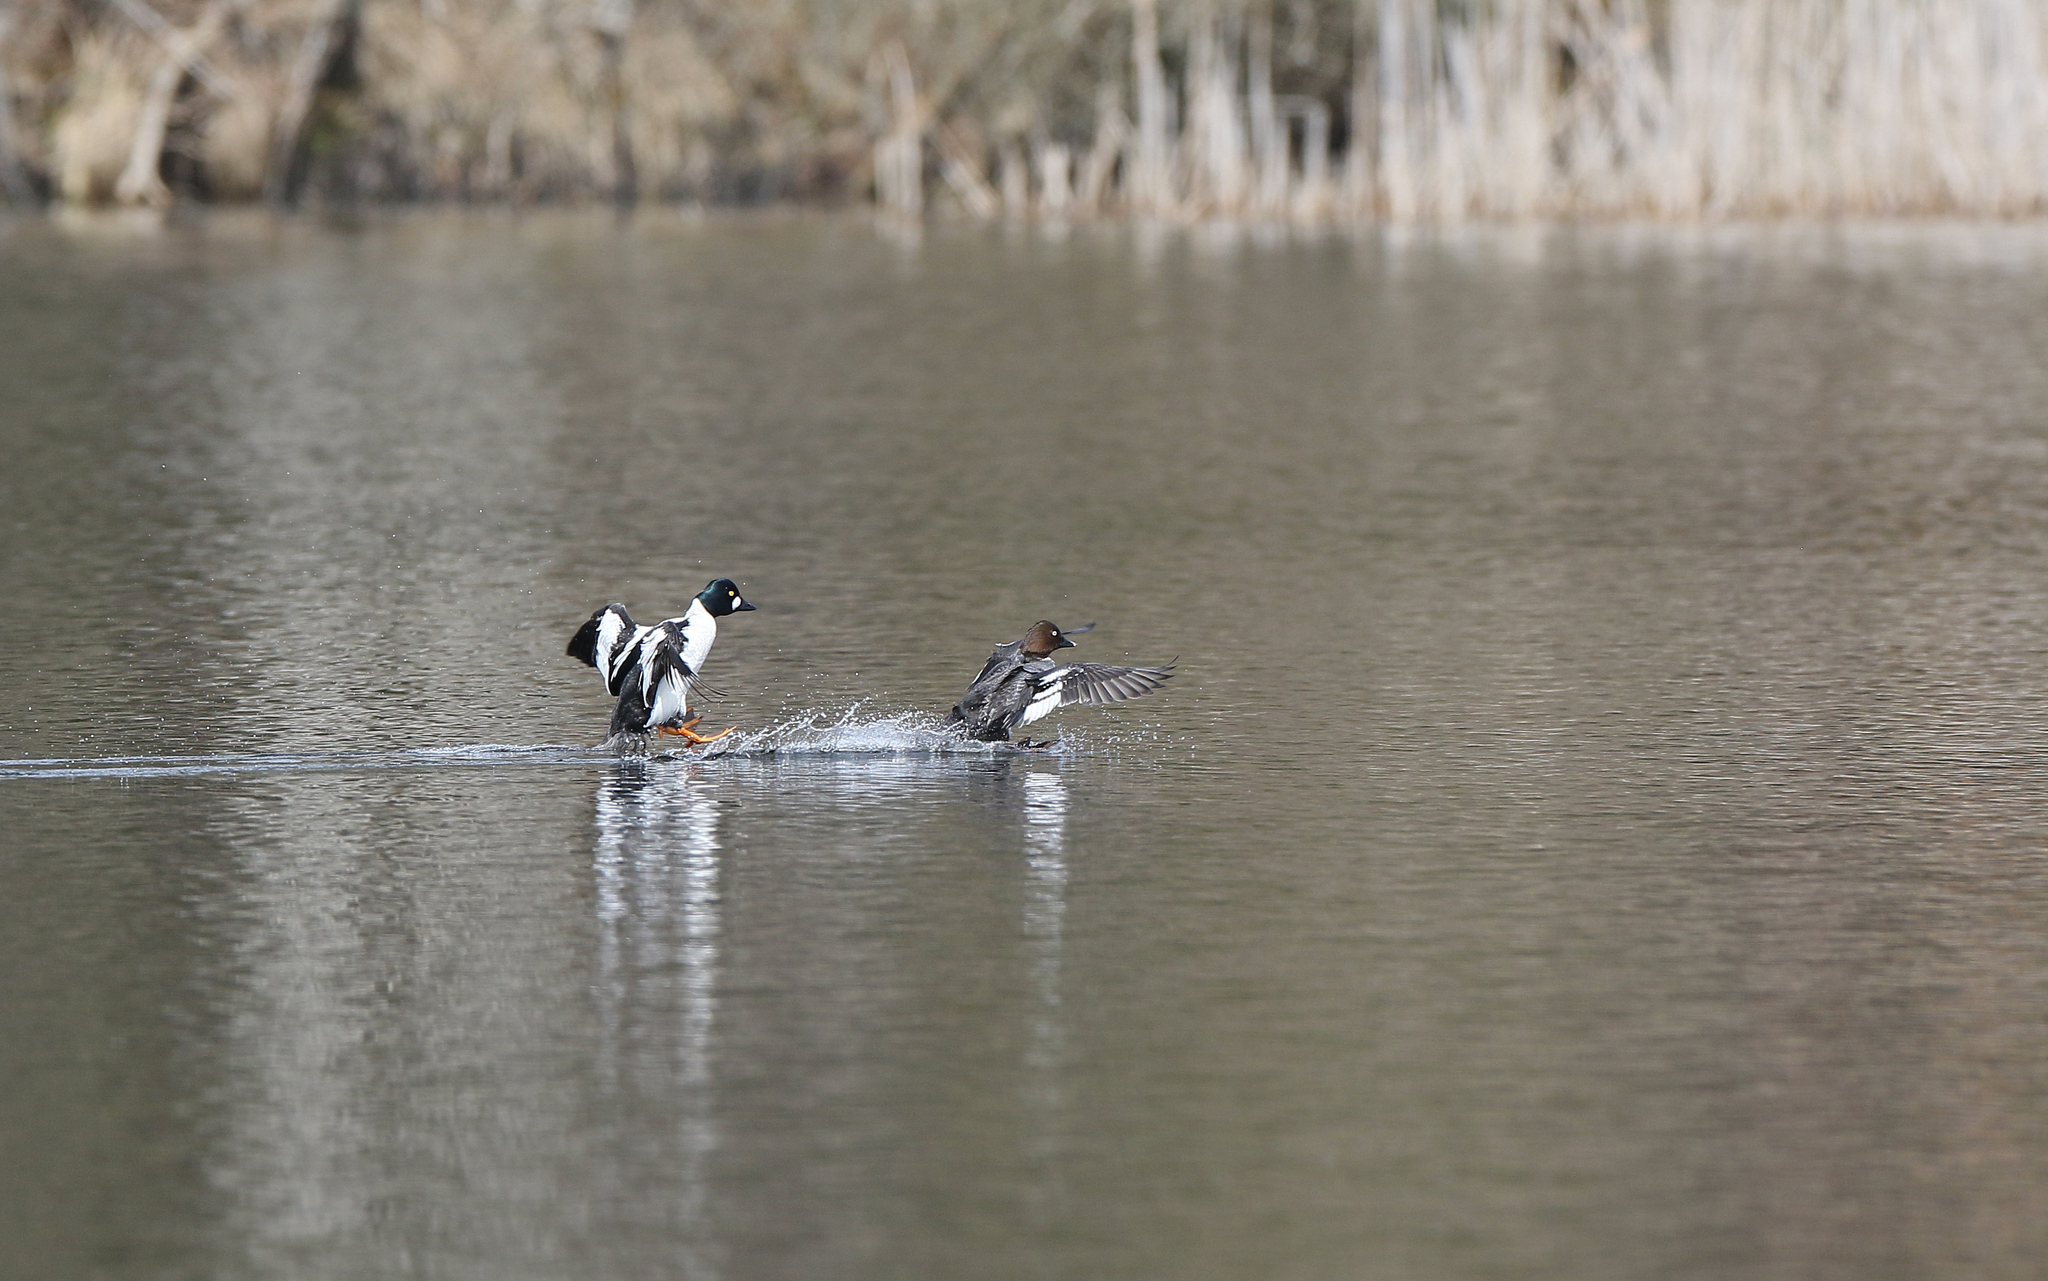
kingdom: Animalia
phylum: Chordata
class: Aves
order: Anseriformes
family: Anatidae
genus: Bucephala
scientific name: Bucephala clangula
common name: Common goldeneye
